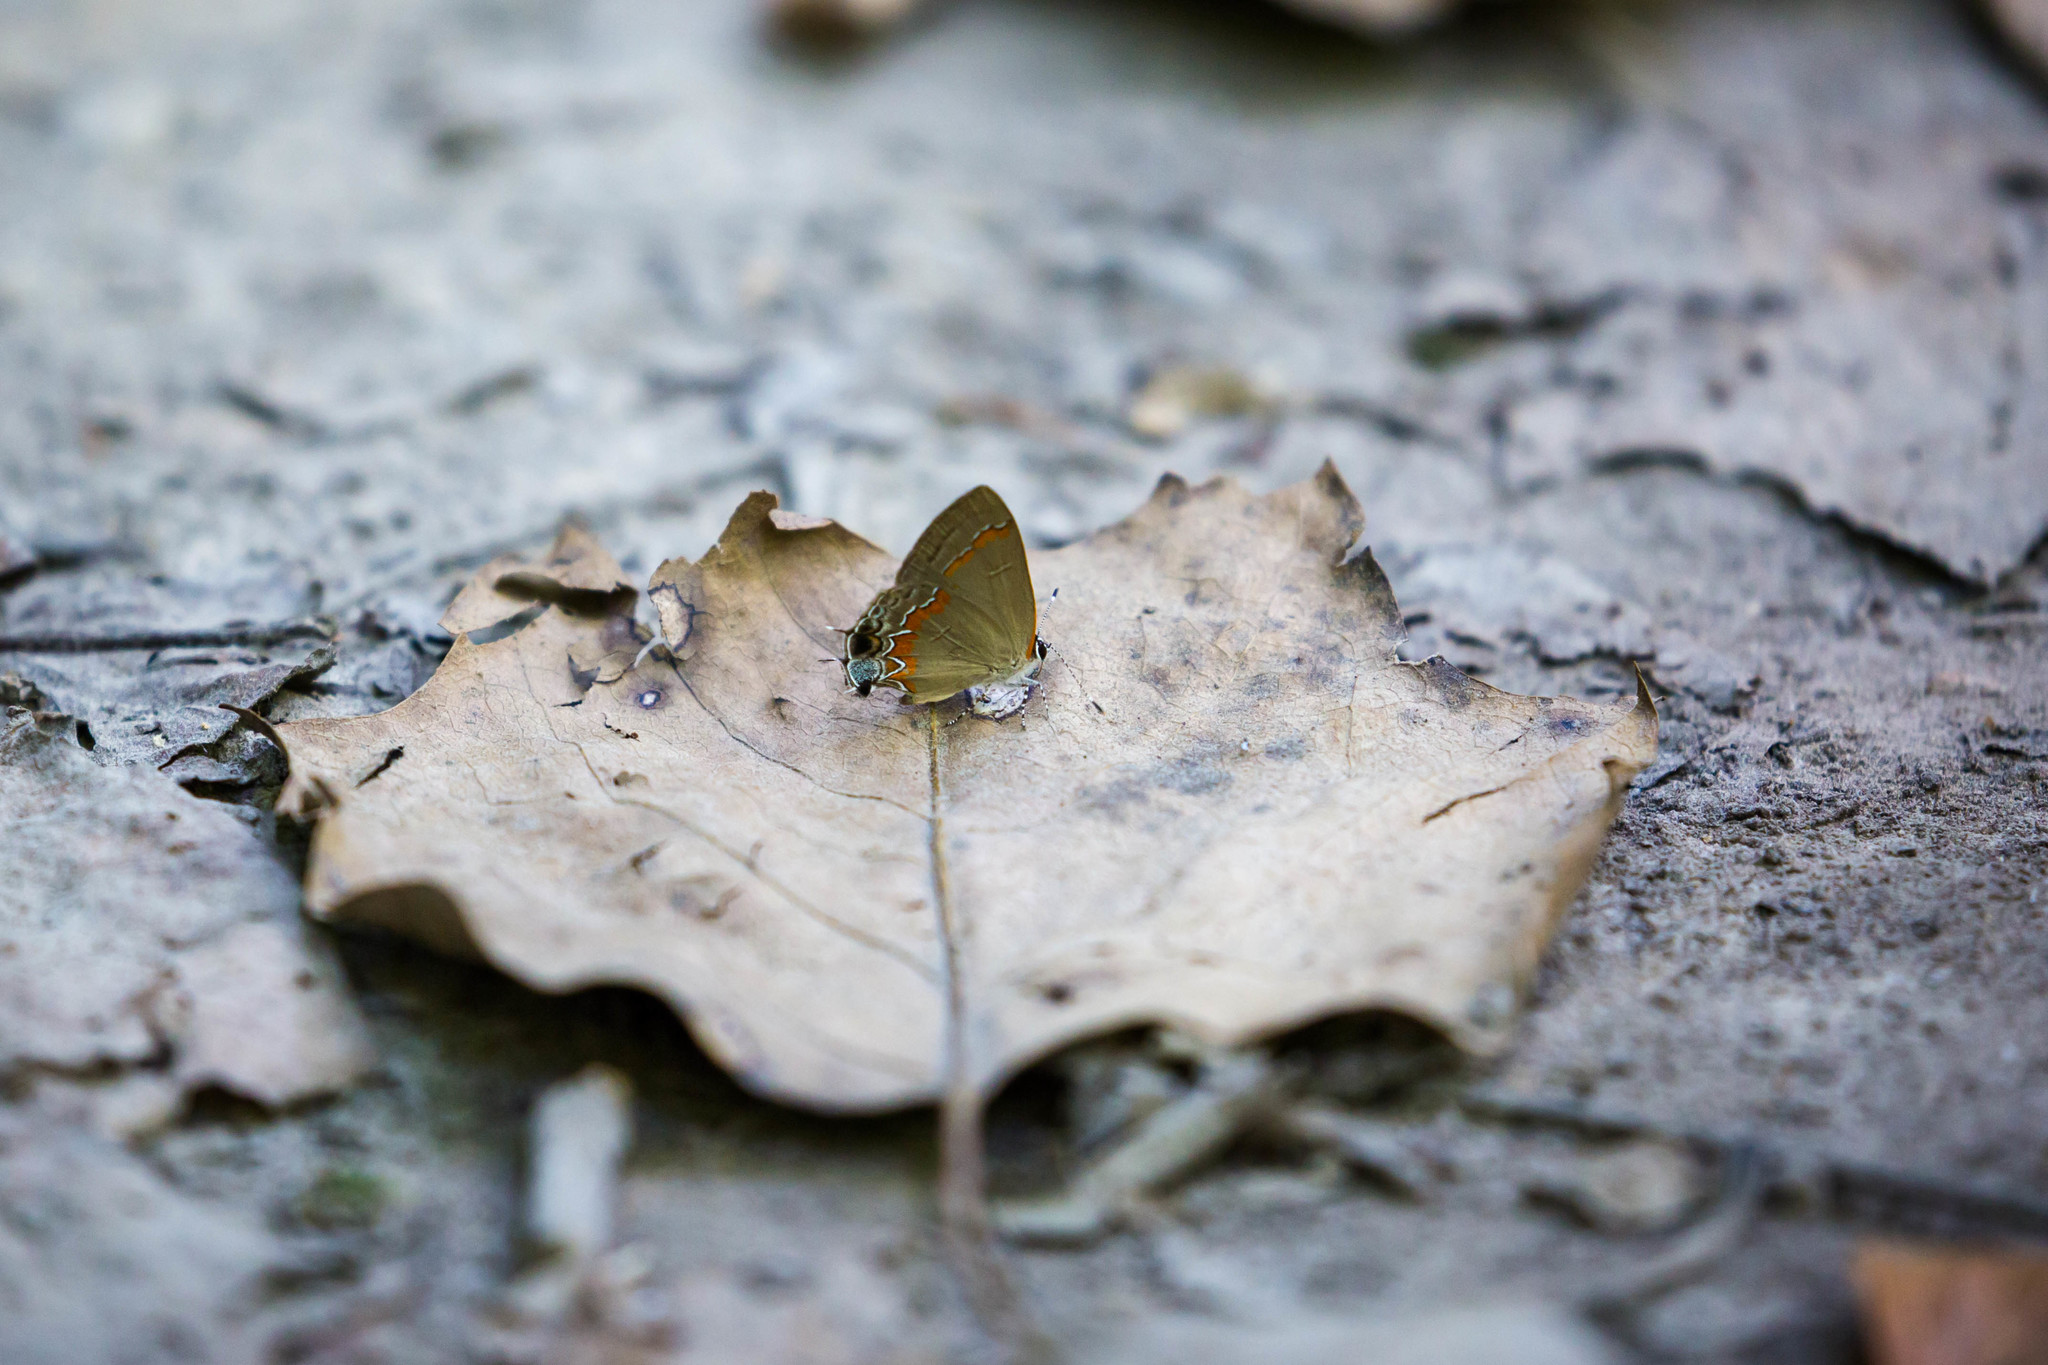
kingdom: Animalia
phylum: Arthropoda
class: Insecta
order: Lepidoptera
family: Lycaenidae
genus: Calycopis
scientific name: Calycopis cecrops
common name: Red-banded hairstreak
